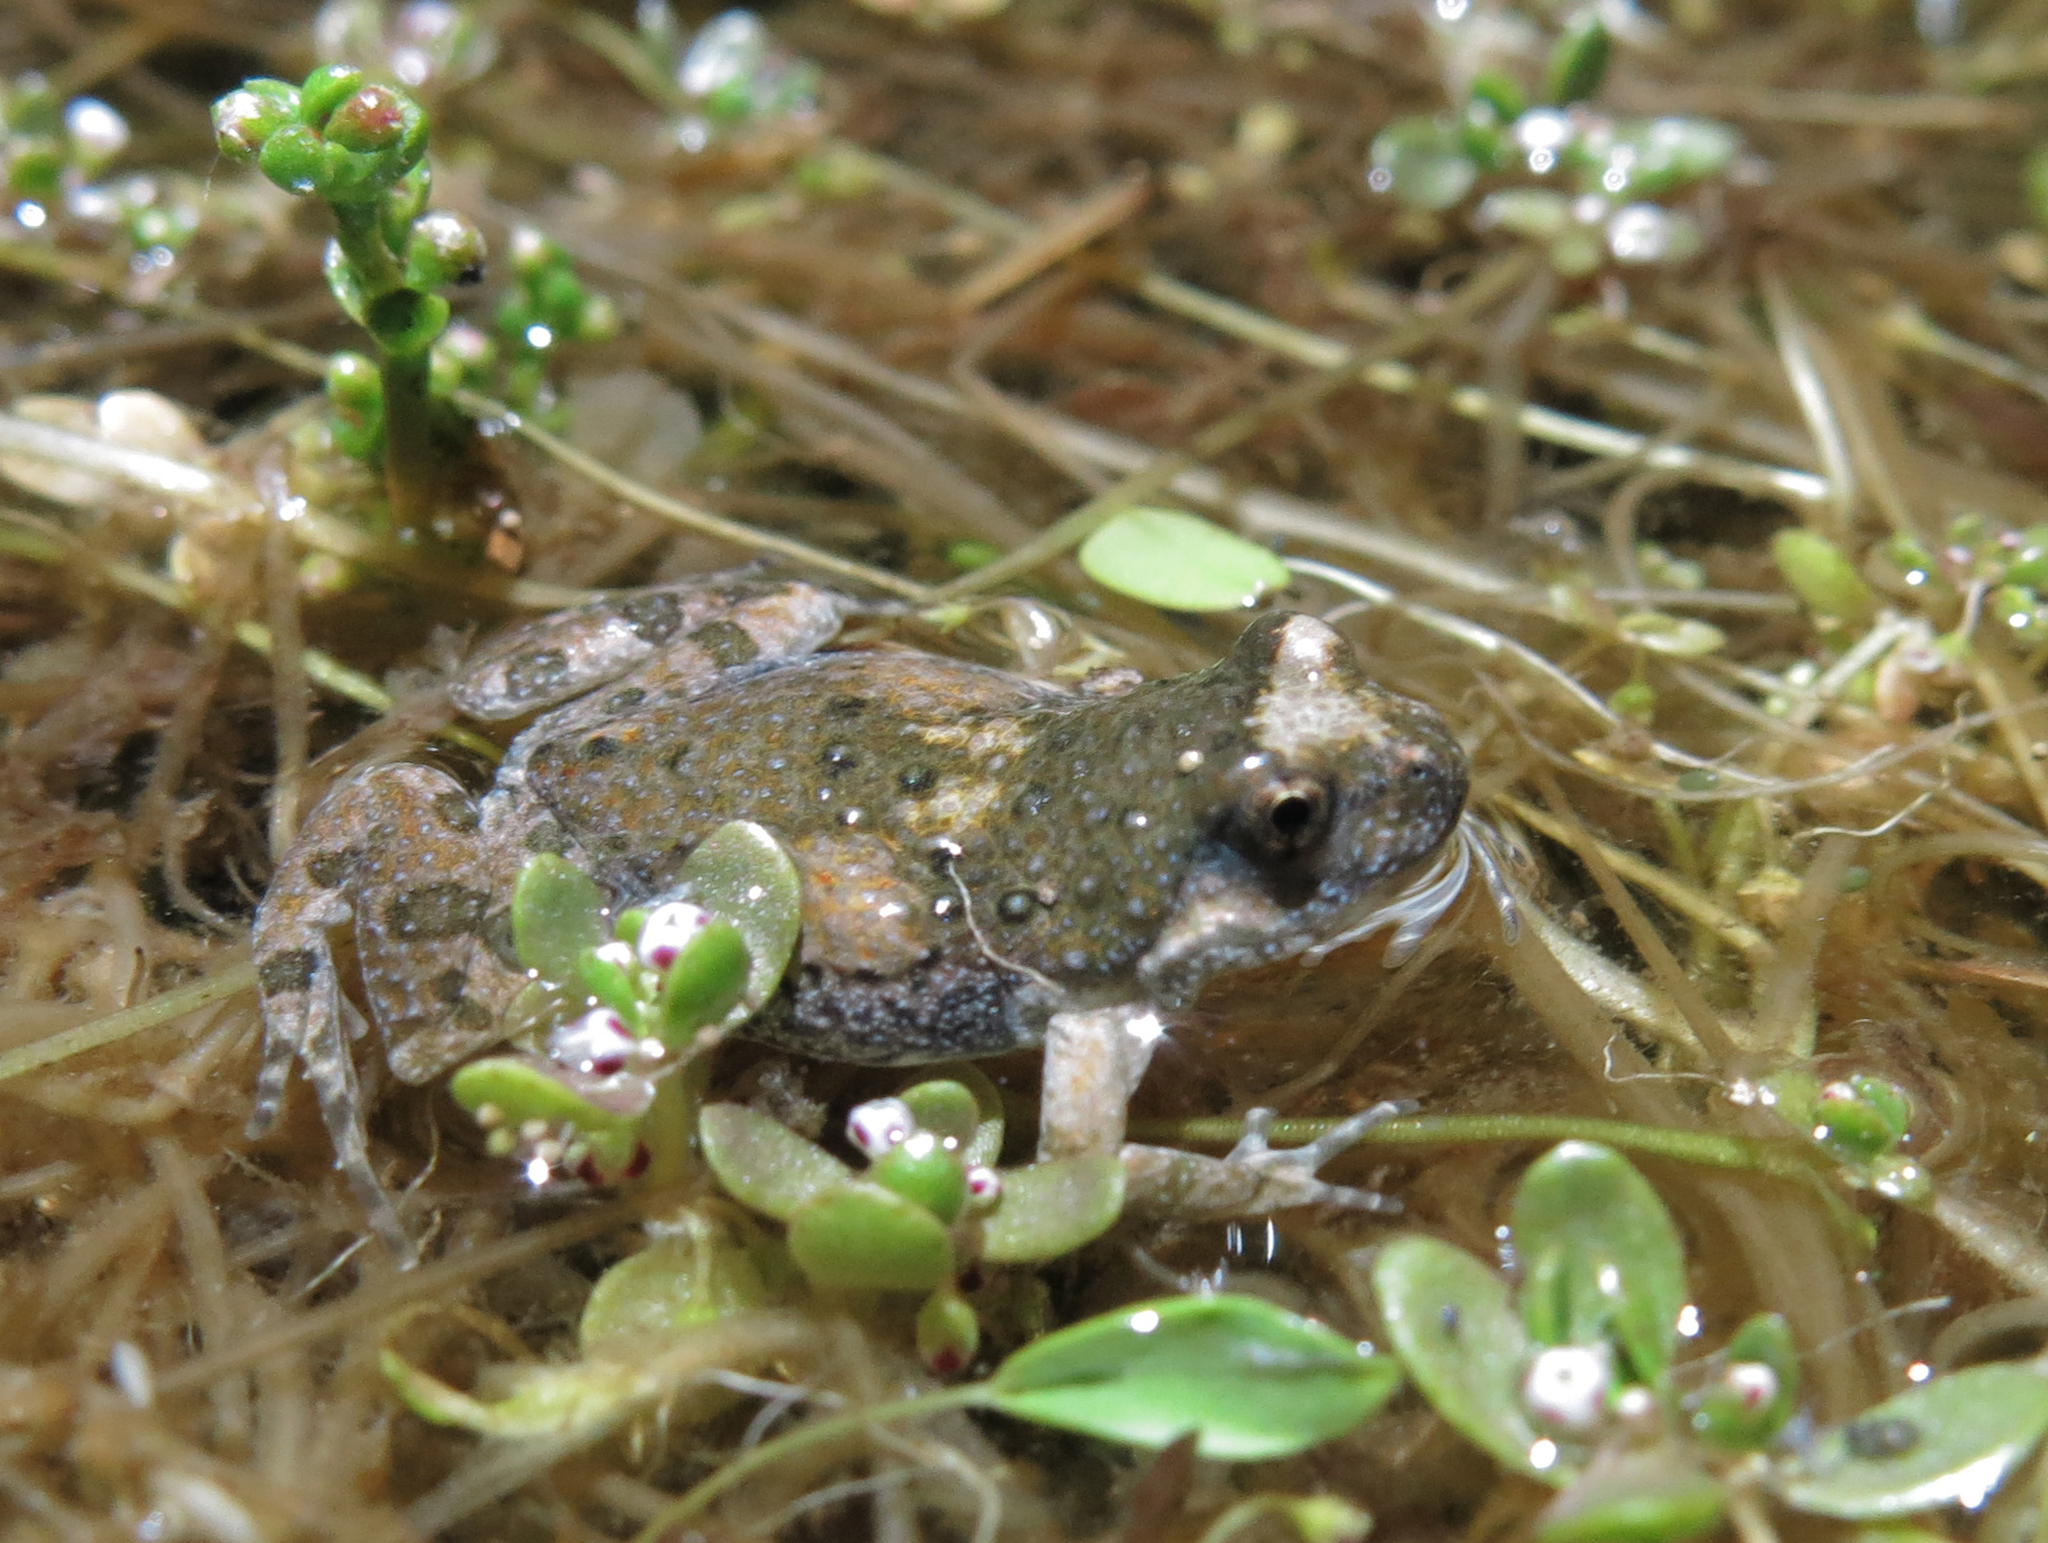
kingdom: Animalia
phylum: Chordata
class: Amphibia
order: Anura
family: Pyxicephalidae
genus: Cacosternum
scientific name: Cacosternum namaquense
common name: Namaqua caco
